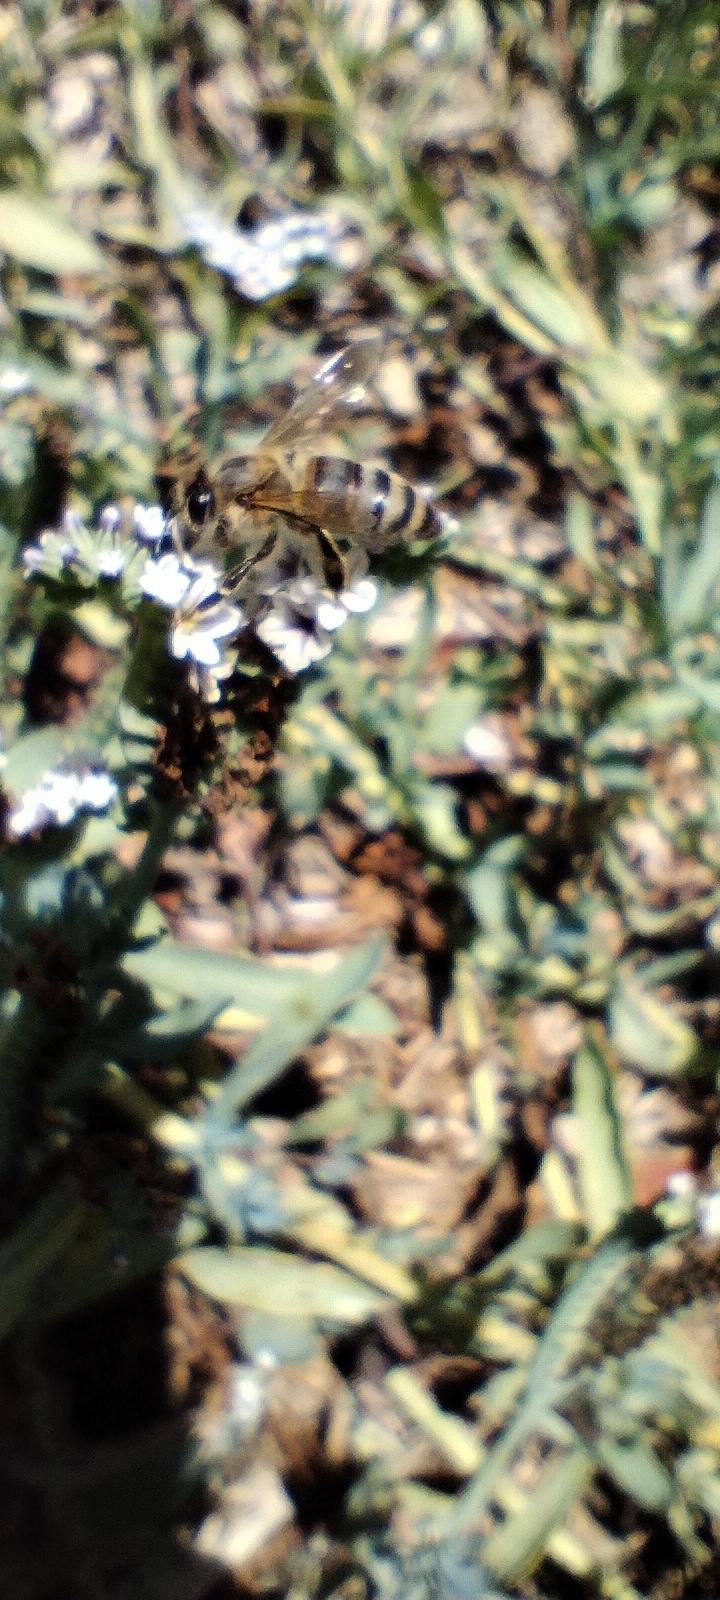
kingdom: Animalia
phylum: Arthropoda
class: Insecta
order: Hymenoptera
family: Apidae
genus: Apis
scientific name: Apis mellifera
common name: Honey bee
